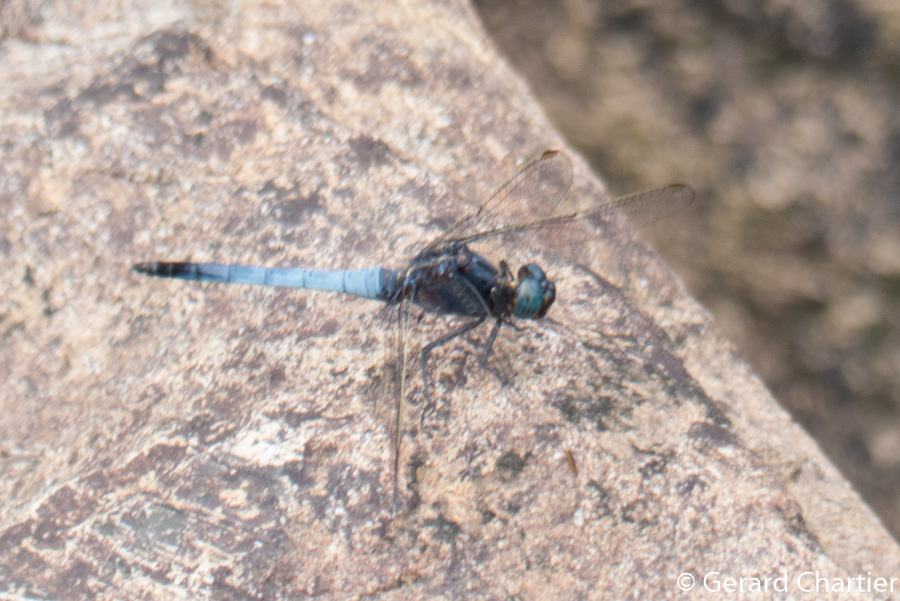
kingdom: Animalia
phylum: Arthropoda
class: Insecta
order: Odonata
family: Libellulidae
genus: Orthetrum
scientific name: Orthetrum glaucum
